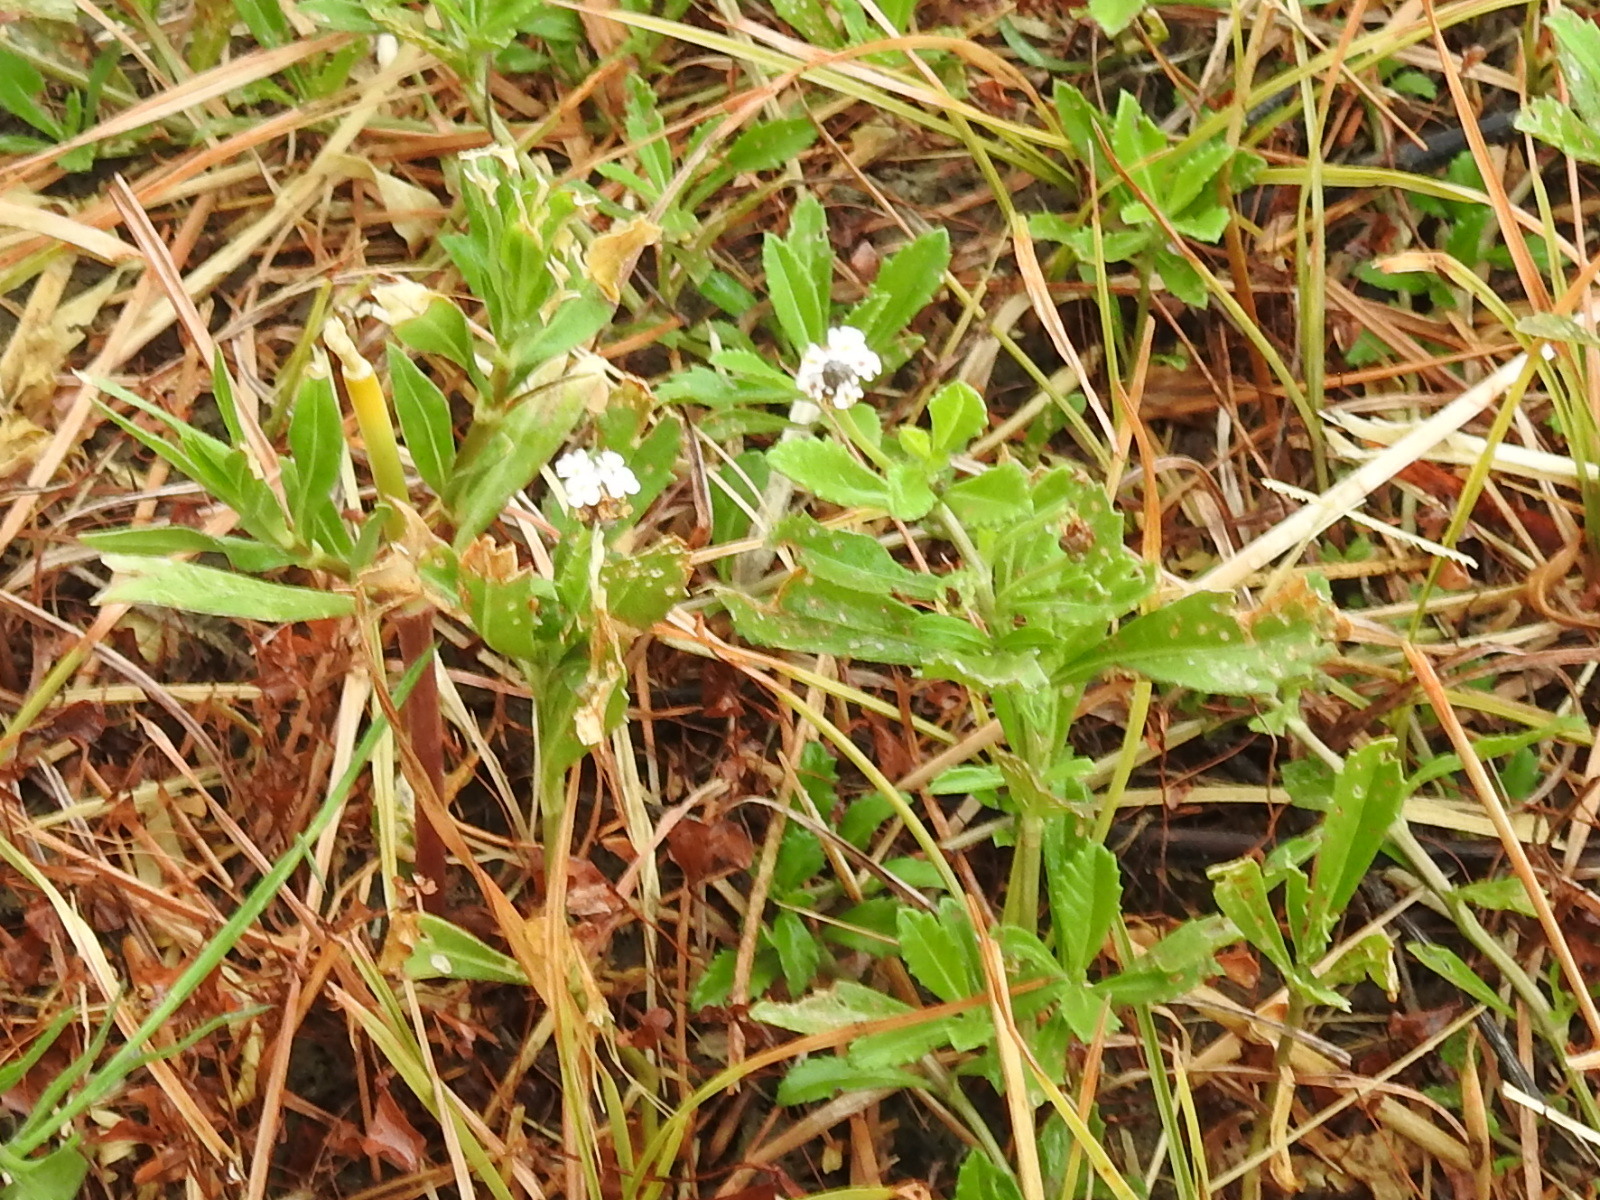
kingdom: Plantae
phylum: Tracheophyta
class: Magnoliopsida
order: Lamiales
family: Verbenaceae
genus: Phyla
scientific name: Phyla nodiflora
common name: Frogfruit
